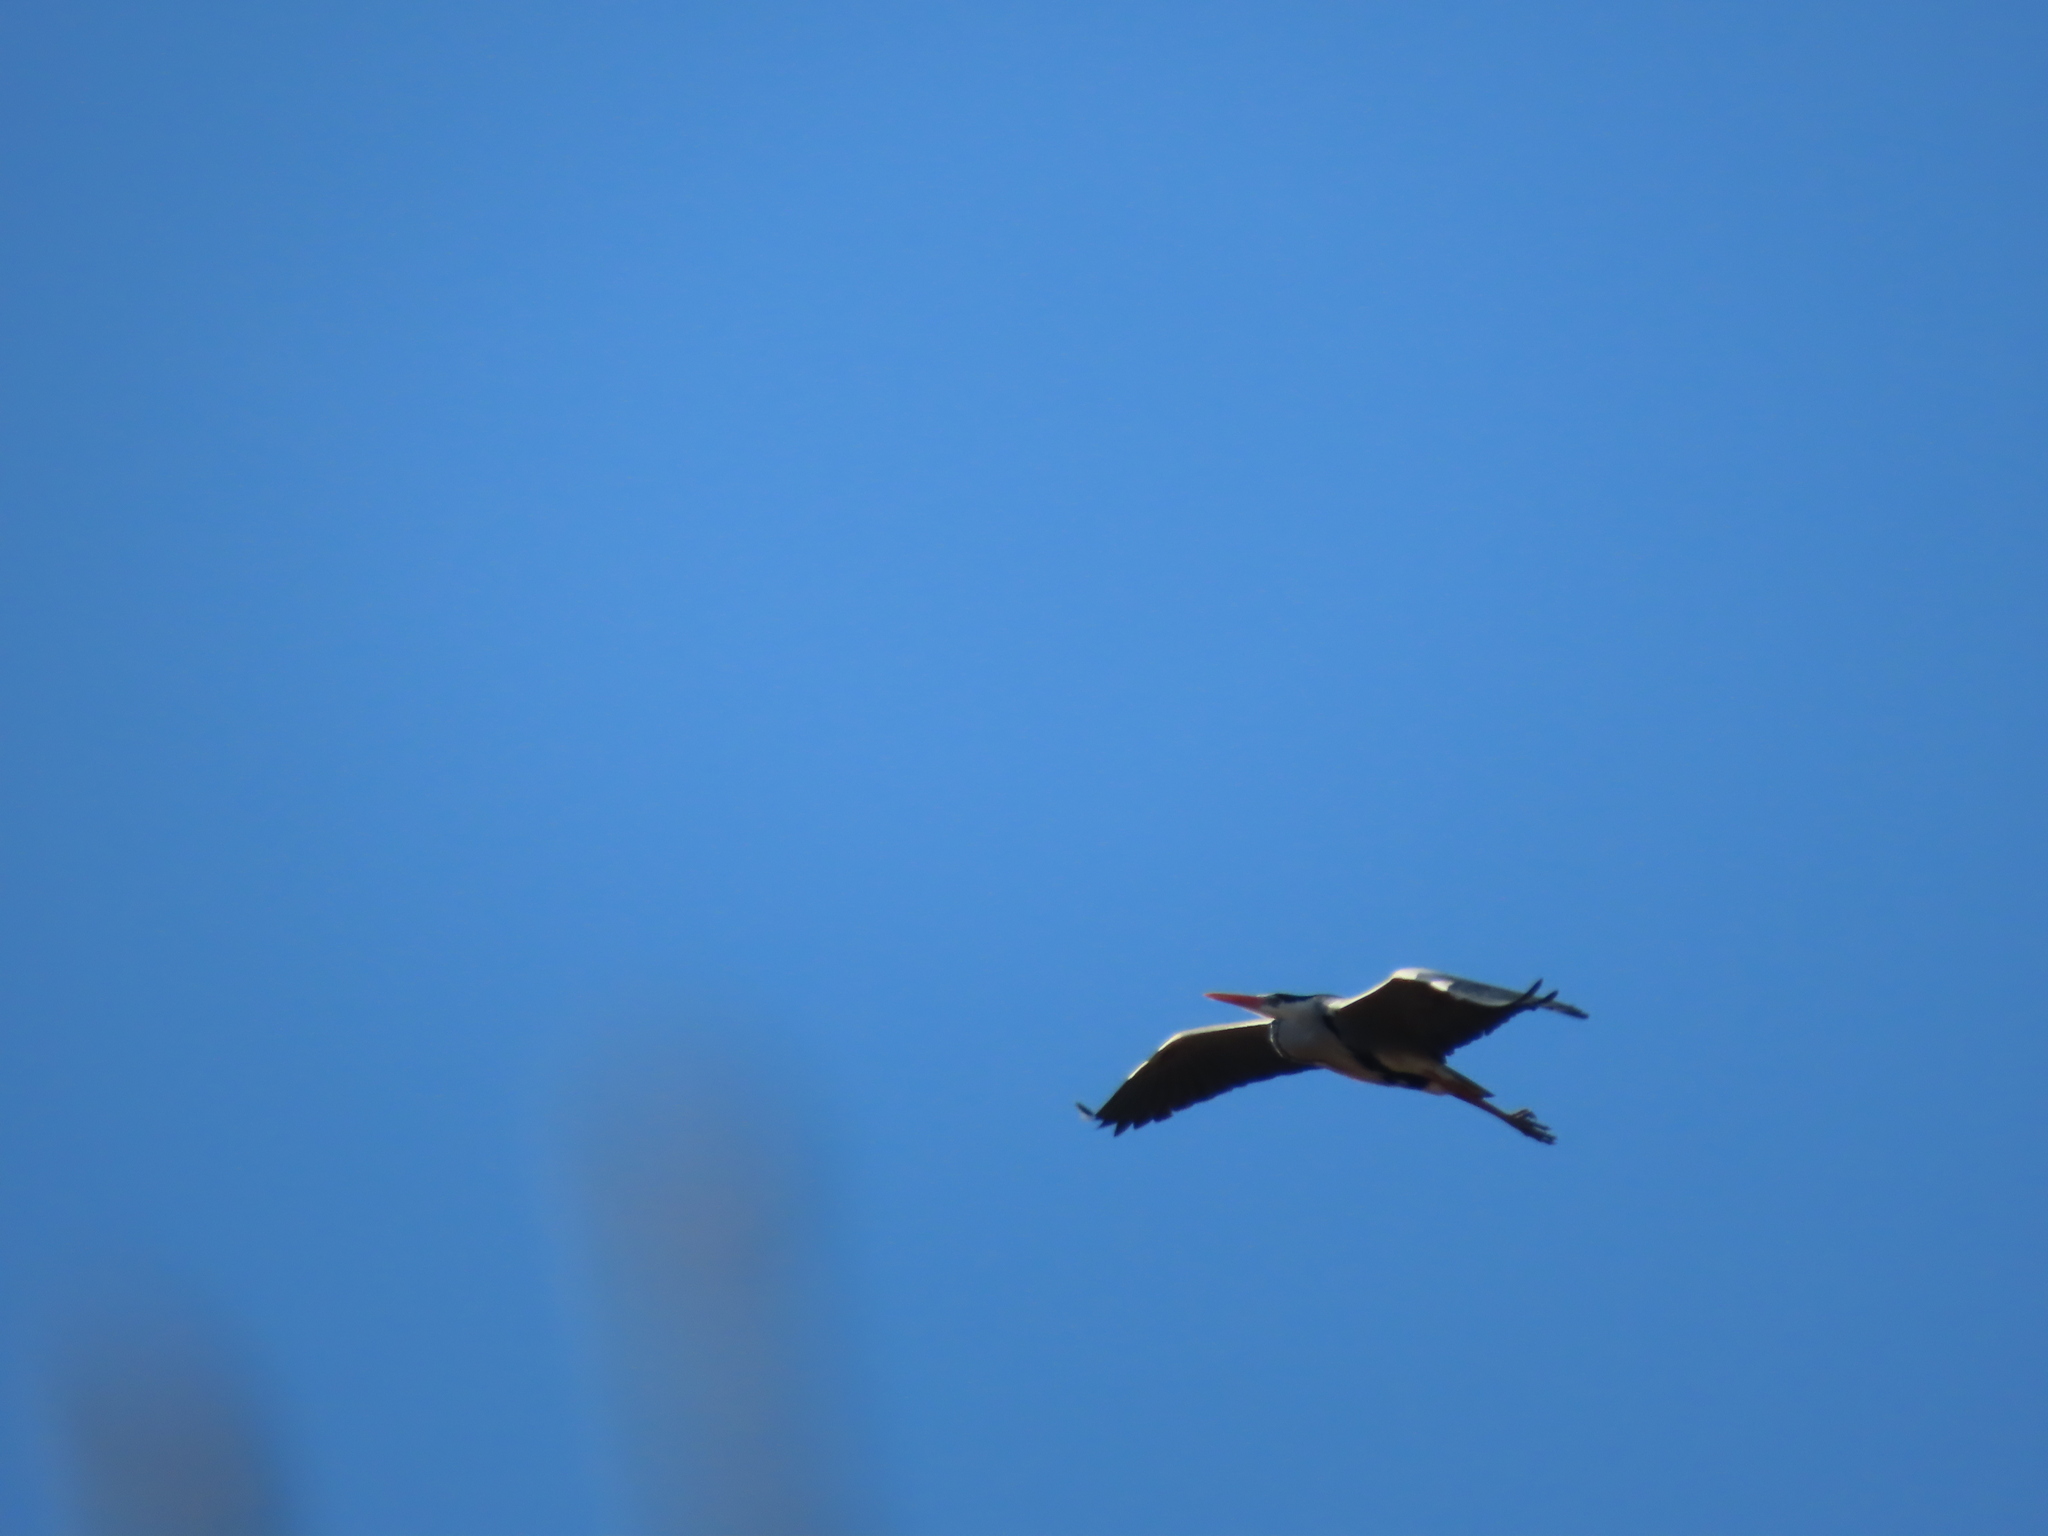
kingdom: Animalia
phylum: Chordata
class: Aves
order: Pelecaniformes
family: Ardeidae
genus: Ardea
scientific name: Ardea cinerea
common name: Grey heron
